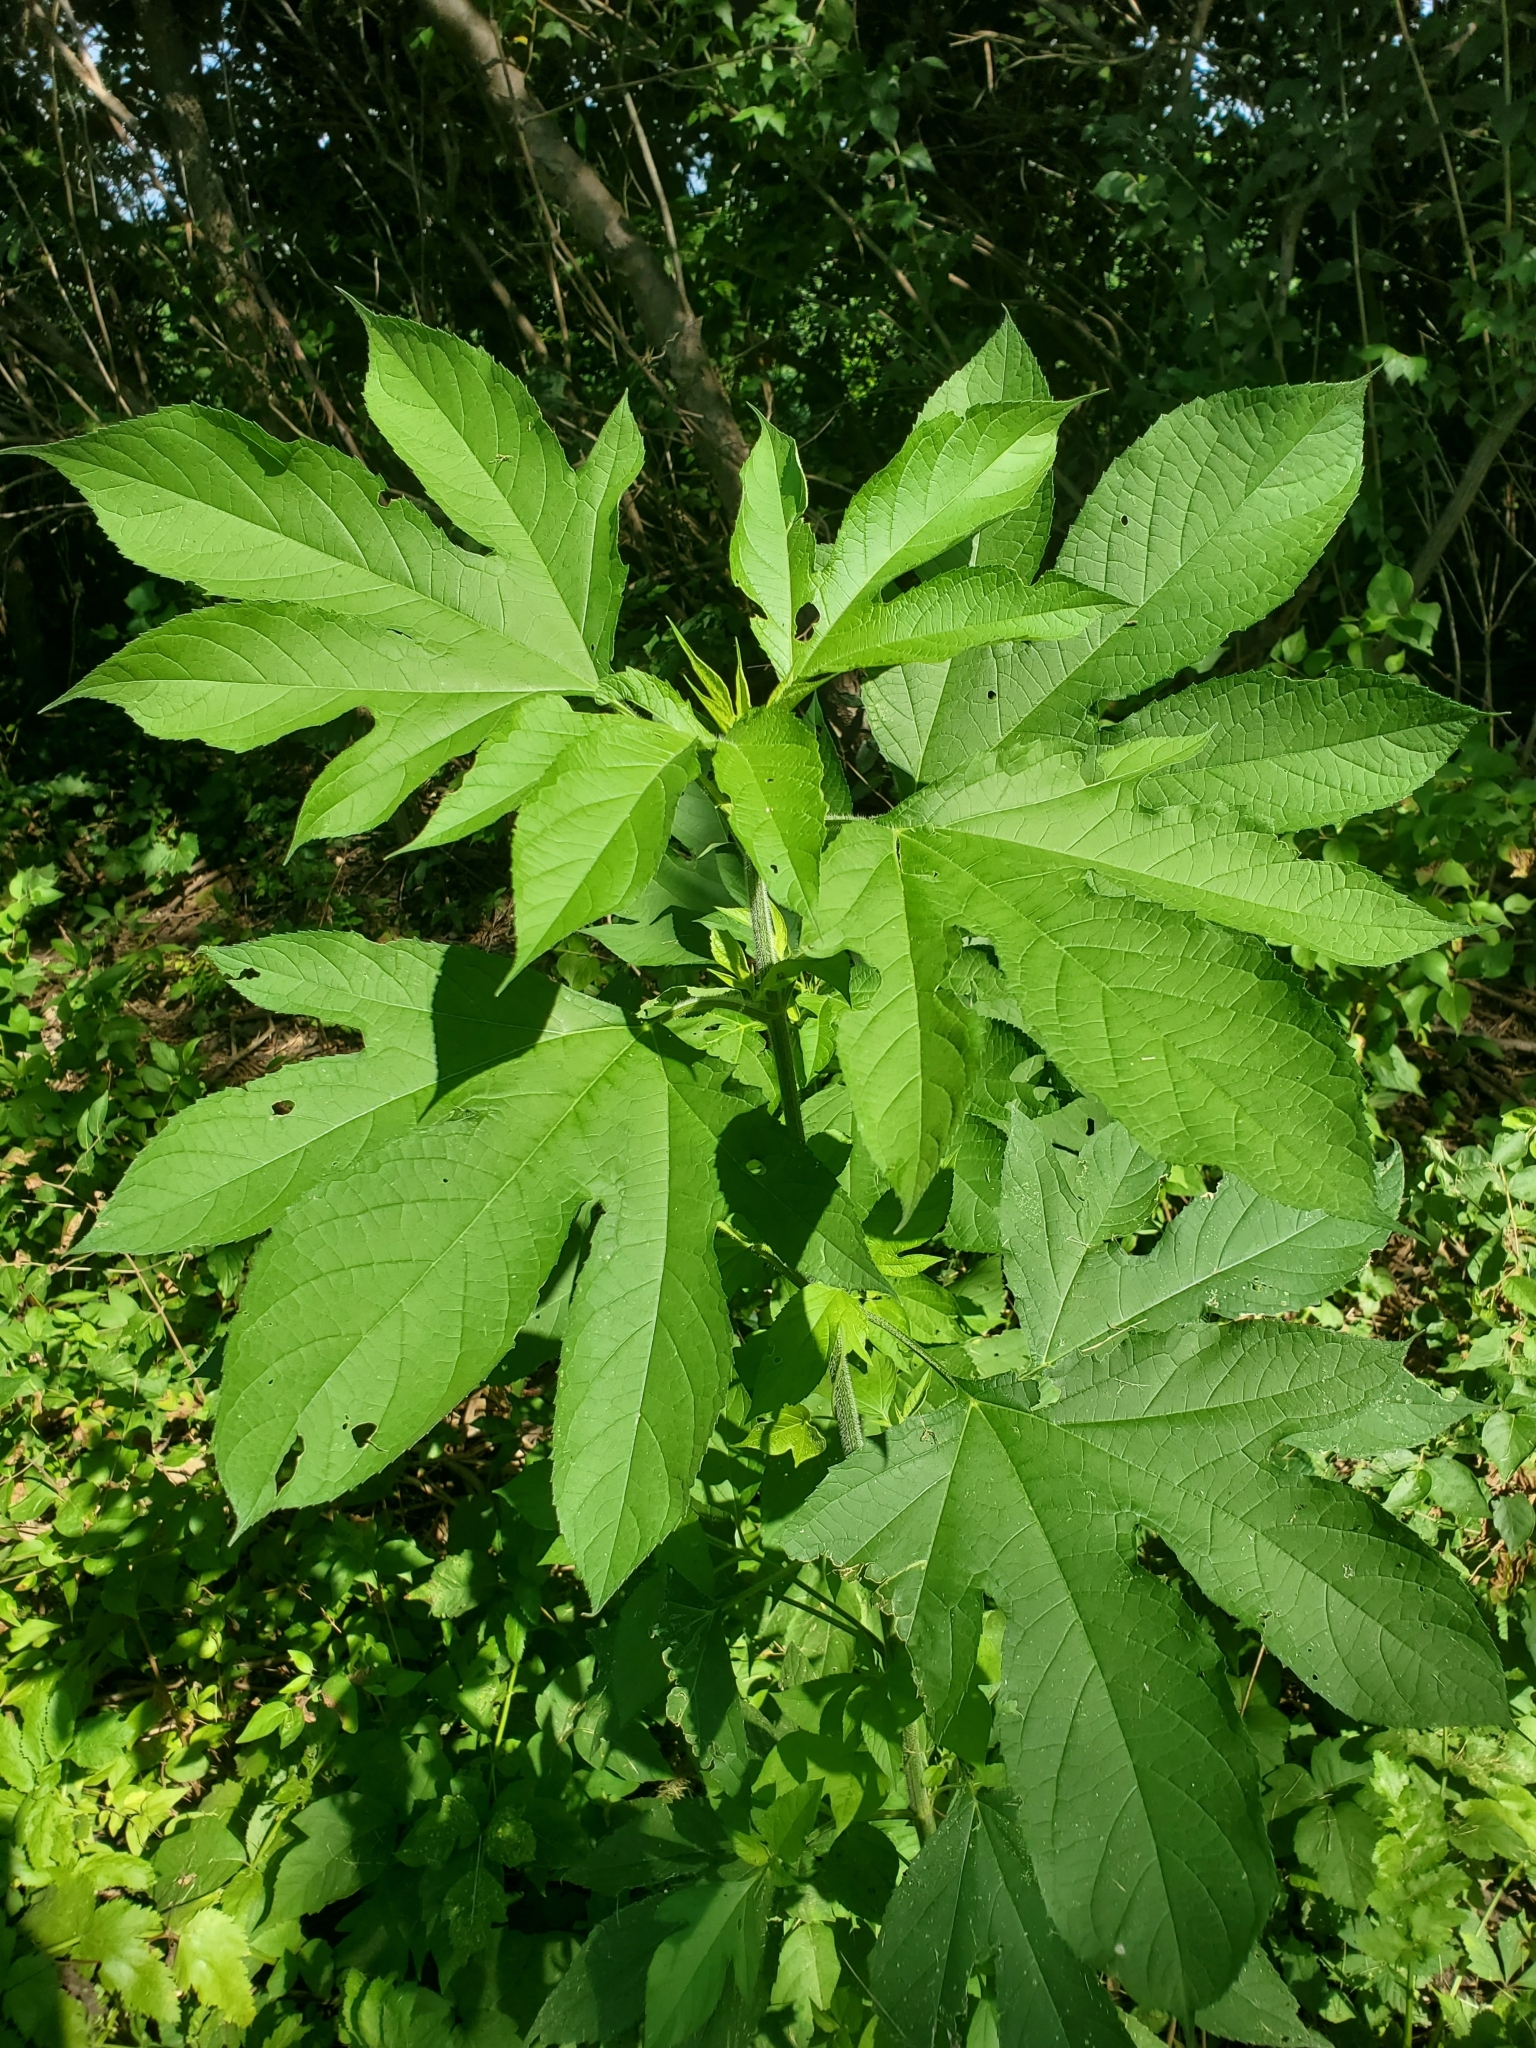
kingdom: Plantae
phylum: Tracheophyta
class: Magnoliopsida
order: Asterales
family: Asteraceae
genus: Ambrosia
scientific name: Ambrosia trifida
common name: Giant ragweed
